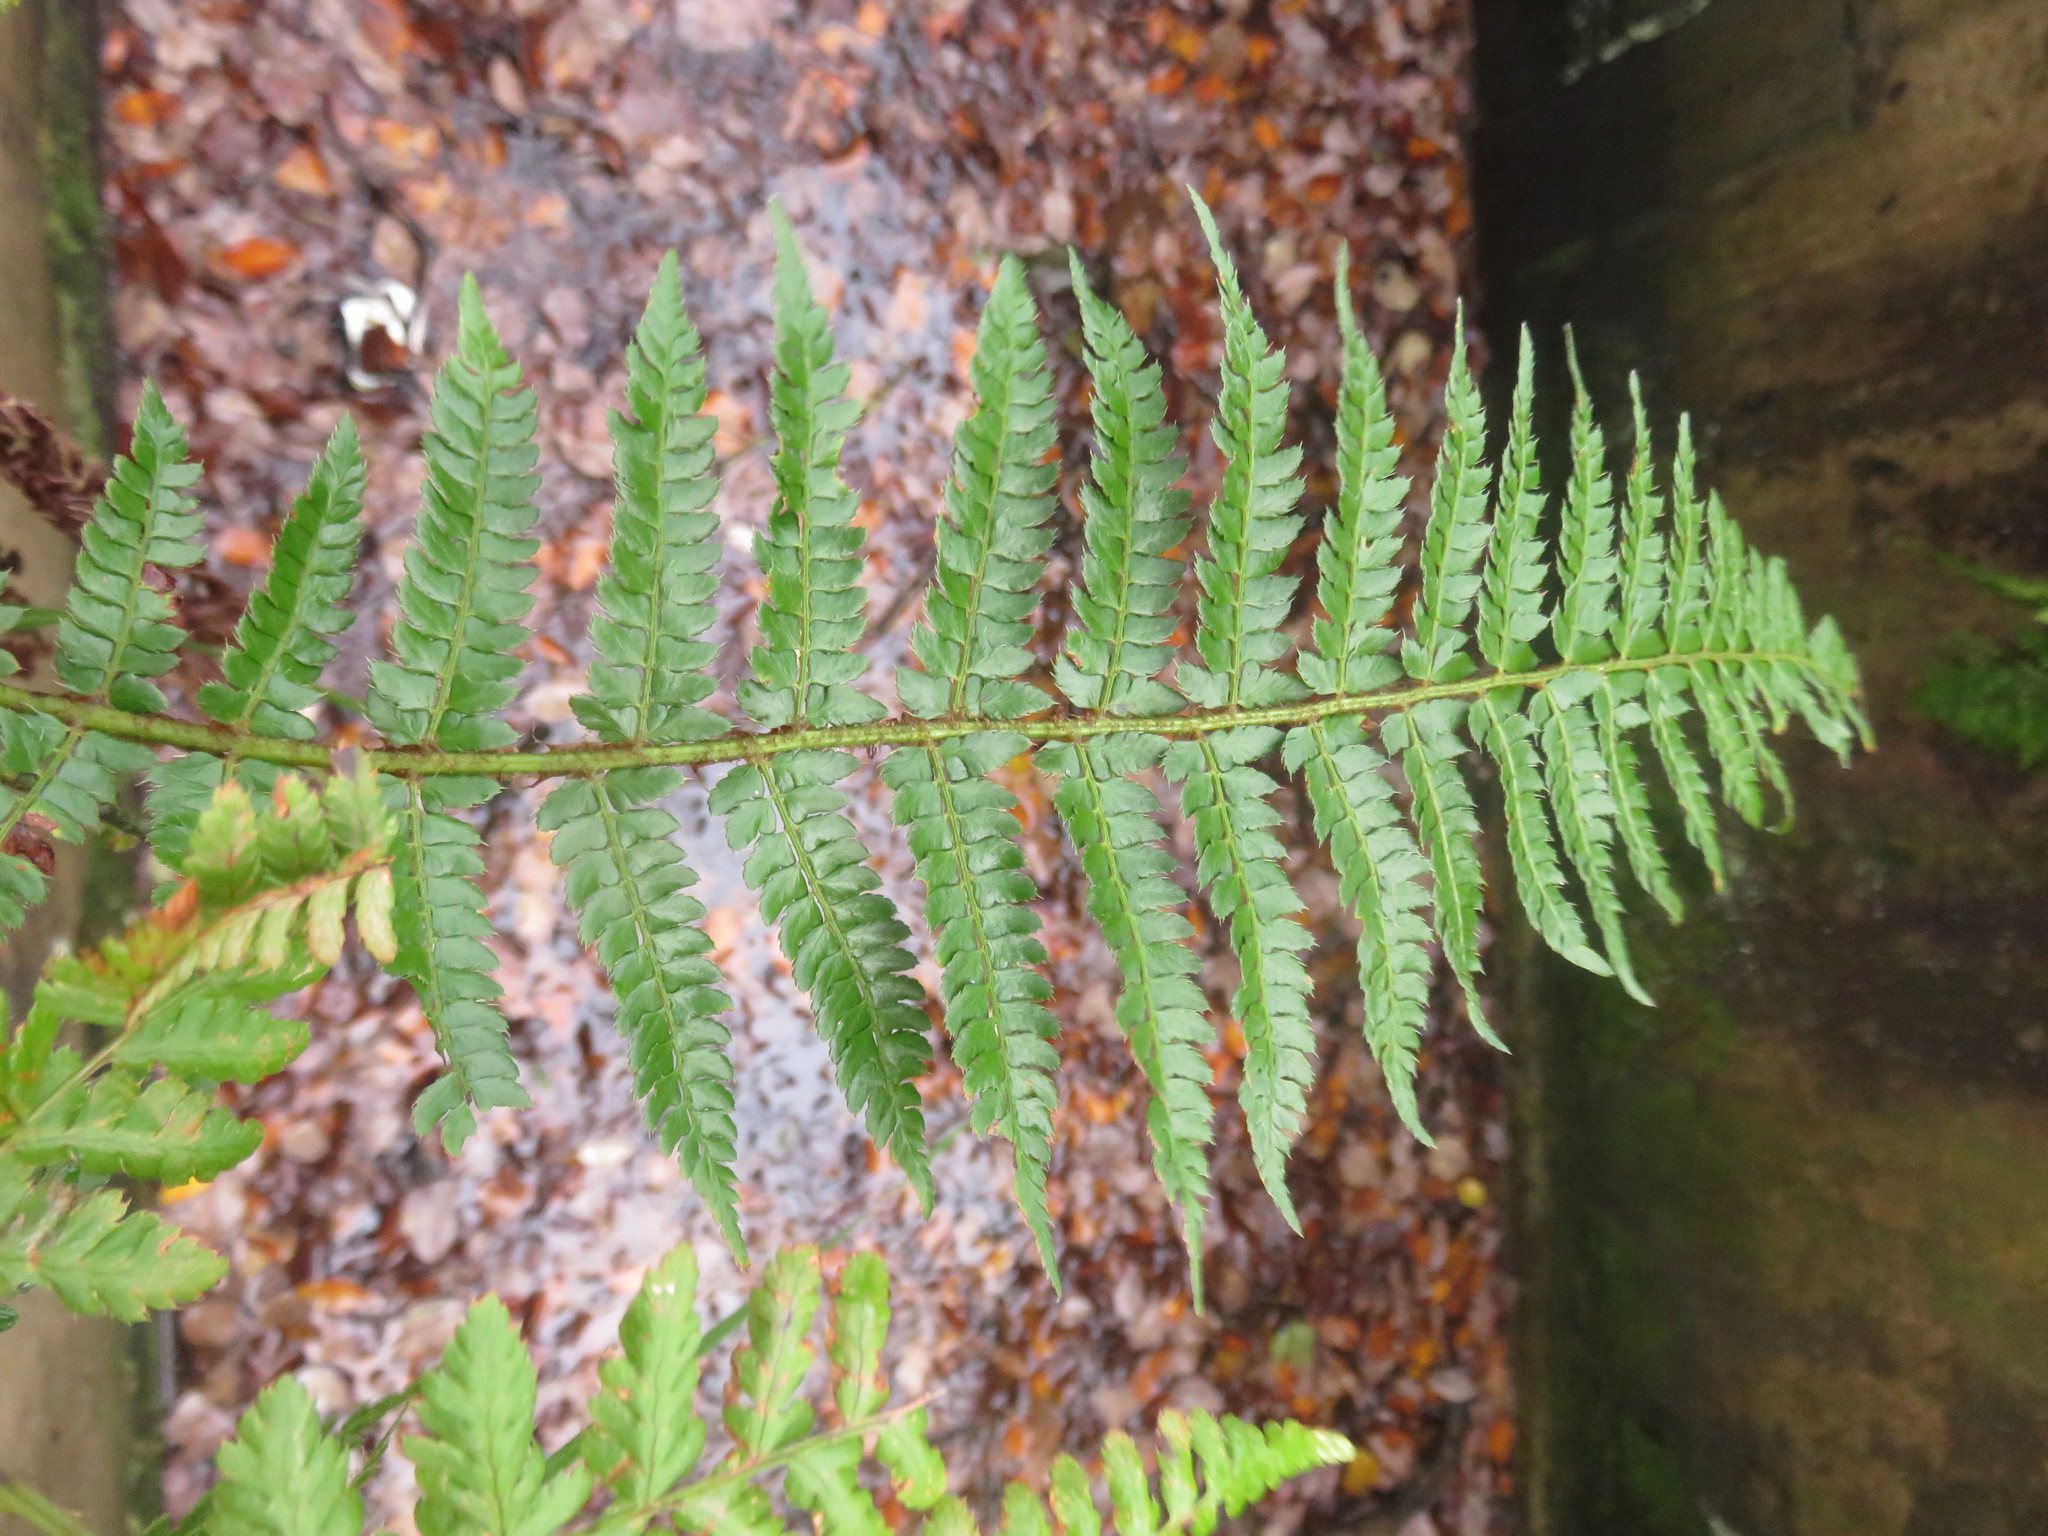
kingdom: Plantae
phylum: Tracheophyta
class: Polypodiopsida
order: Polypodiales
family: Dryopteridaceae
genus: Polystichum
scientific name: Polystichum setiferum
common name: Soft shield-fern
